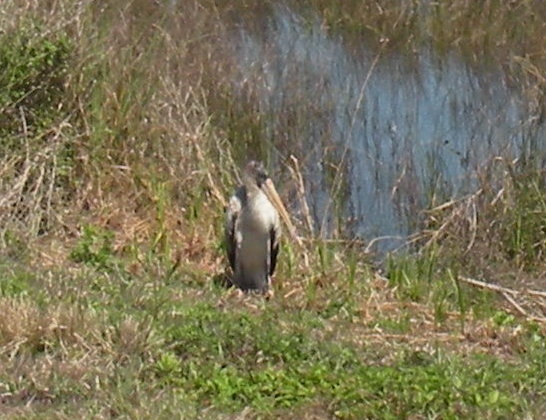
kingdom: Animalia
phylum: Chordata
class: Aves
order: Ciconiiformes
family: Ciconiidae
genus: Mycteria
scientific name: Mycteria americana
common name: Wood stork
